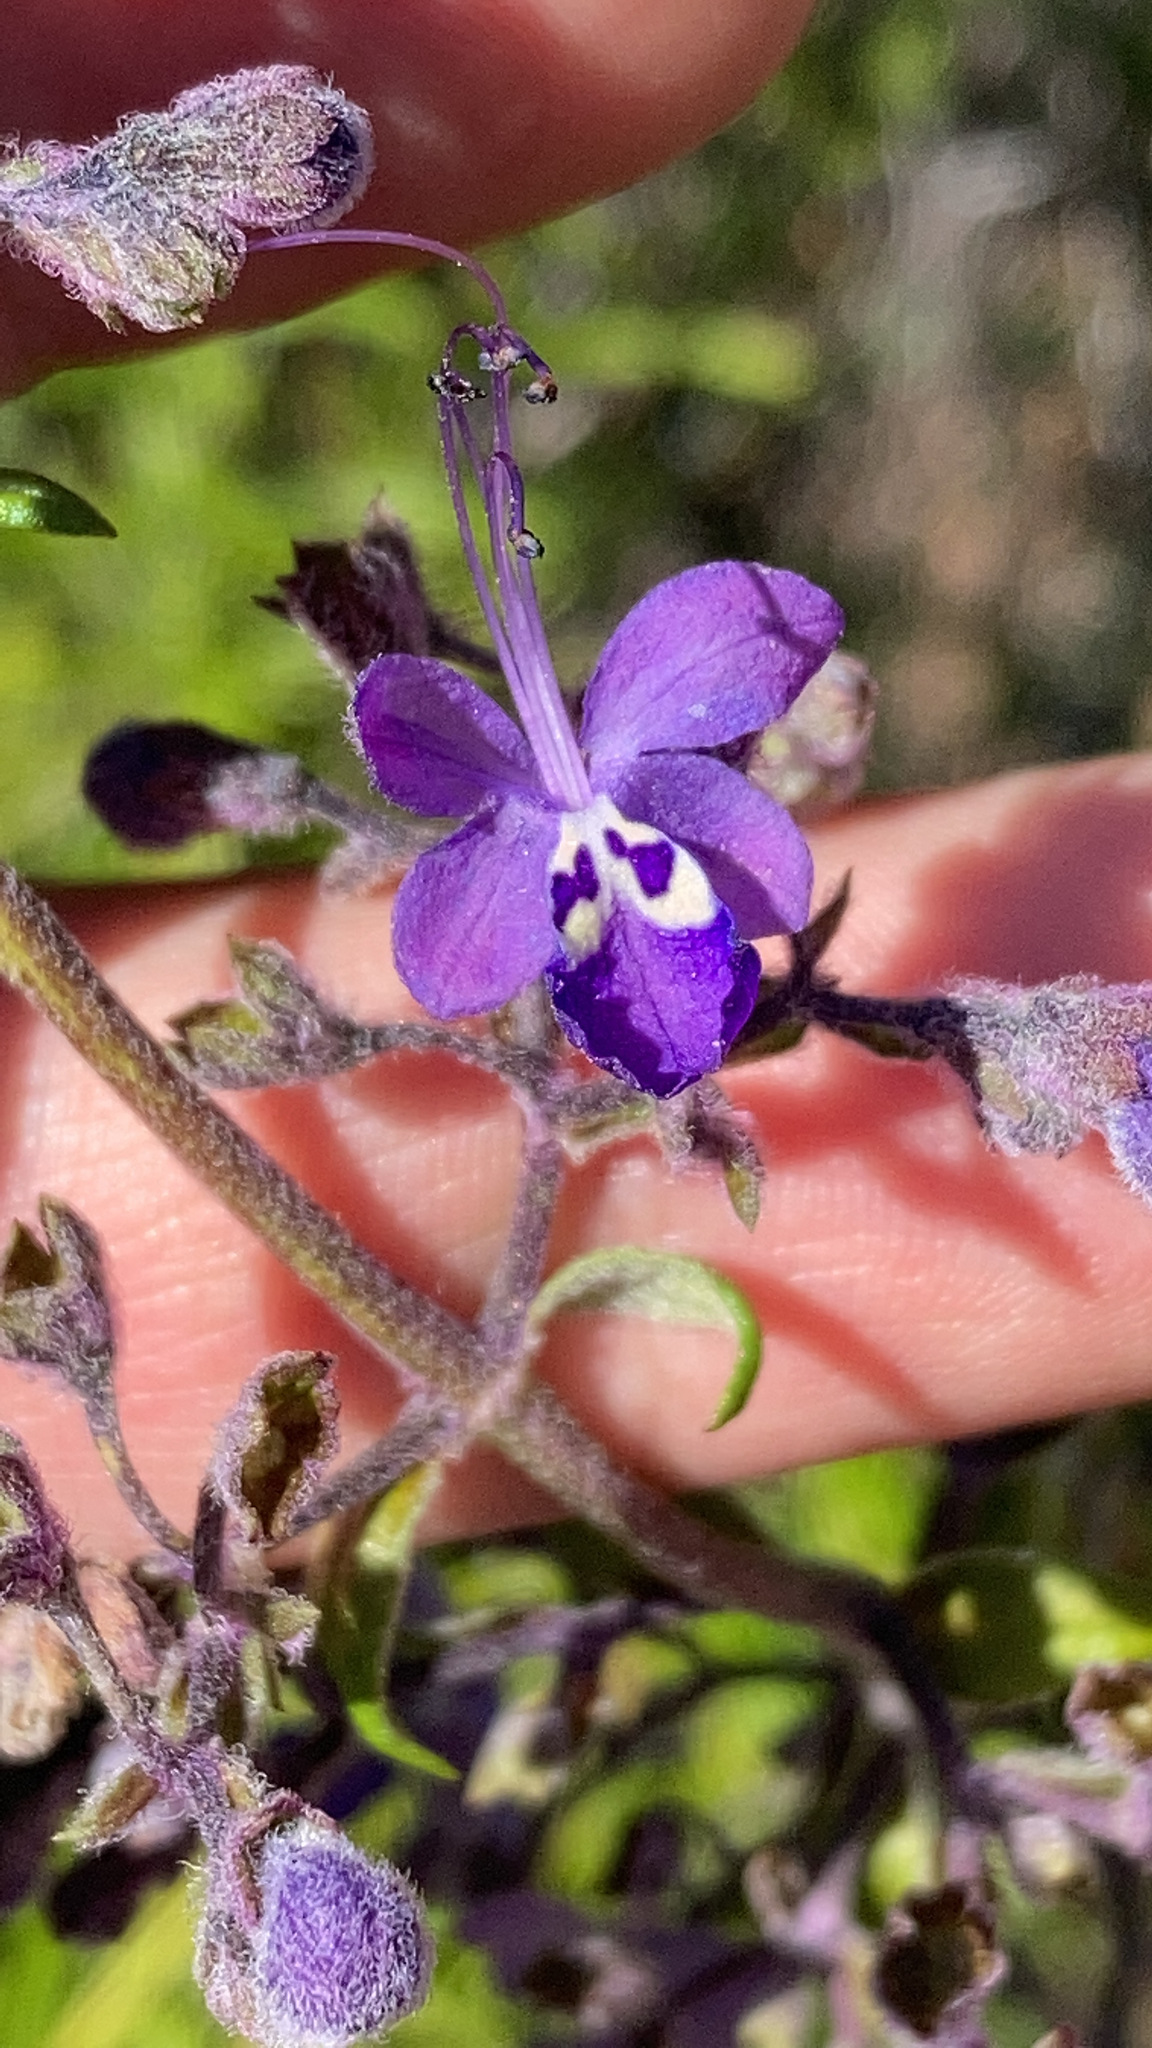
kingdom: Plantae
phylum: Tracheophyta
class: Magnoliopsida
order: Lamiales
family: Lamiaceae
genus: Trichostema
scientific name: Trichostema parishii
